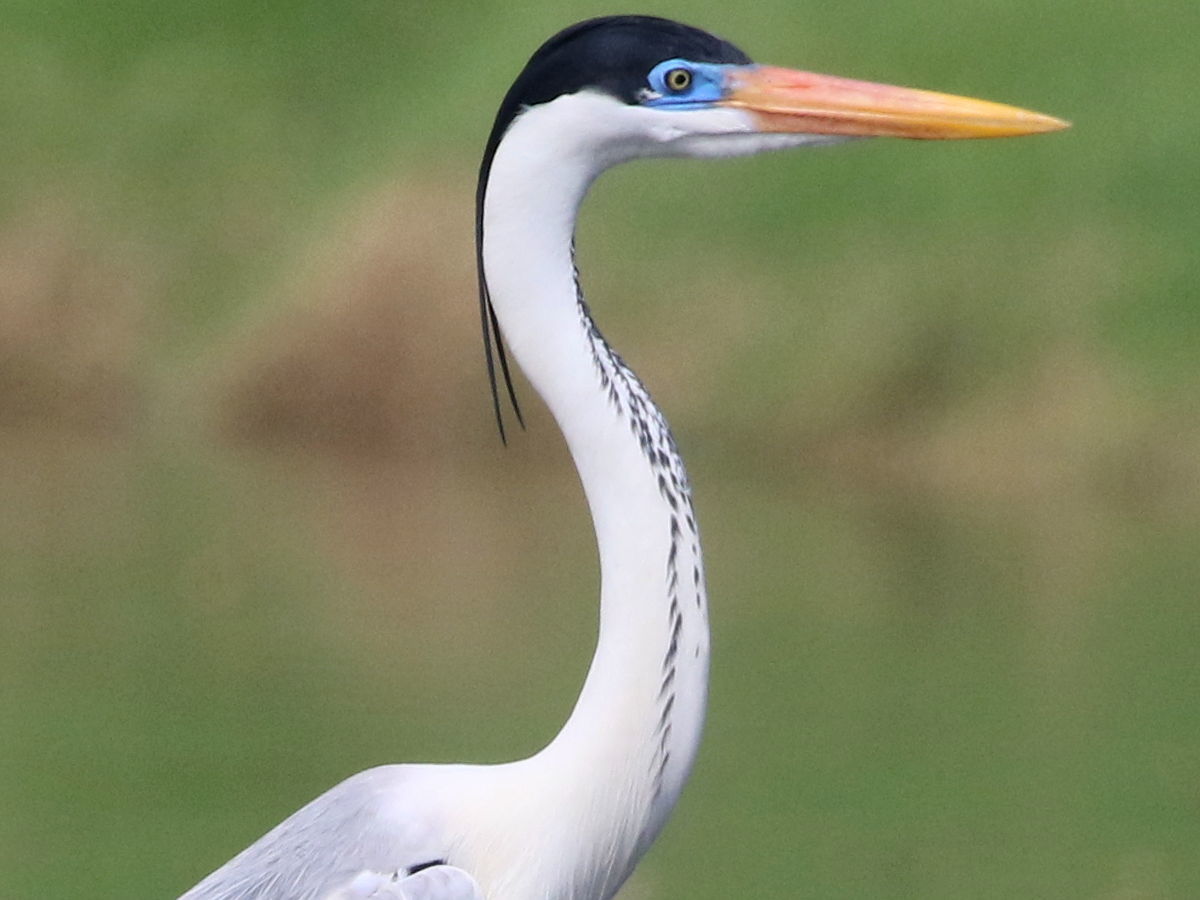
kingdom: Animalia
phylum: Chordata
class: Aves
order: Pelecaniformes
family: Ardeidae
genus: Ardea
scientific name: Ardea cocoi
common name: Cocoi heron
